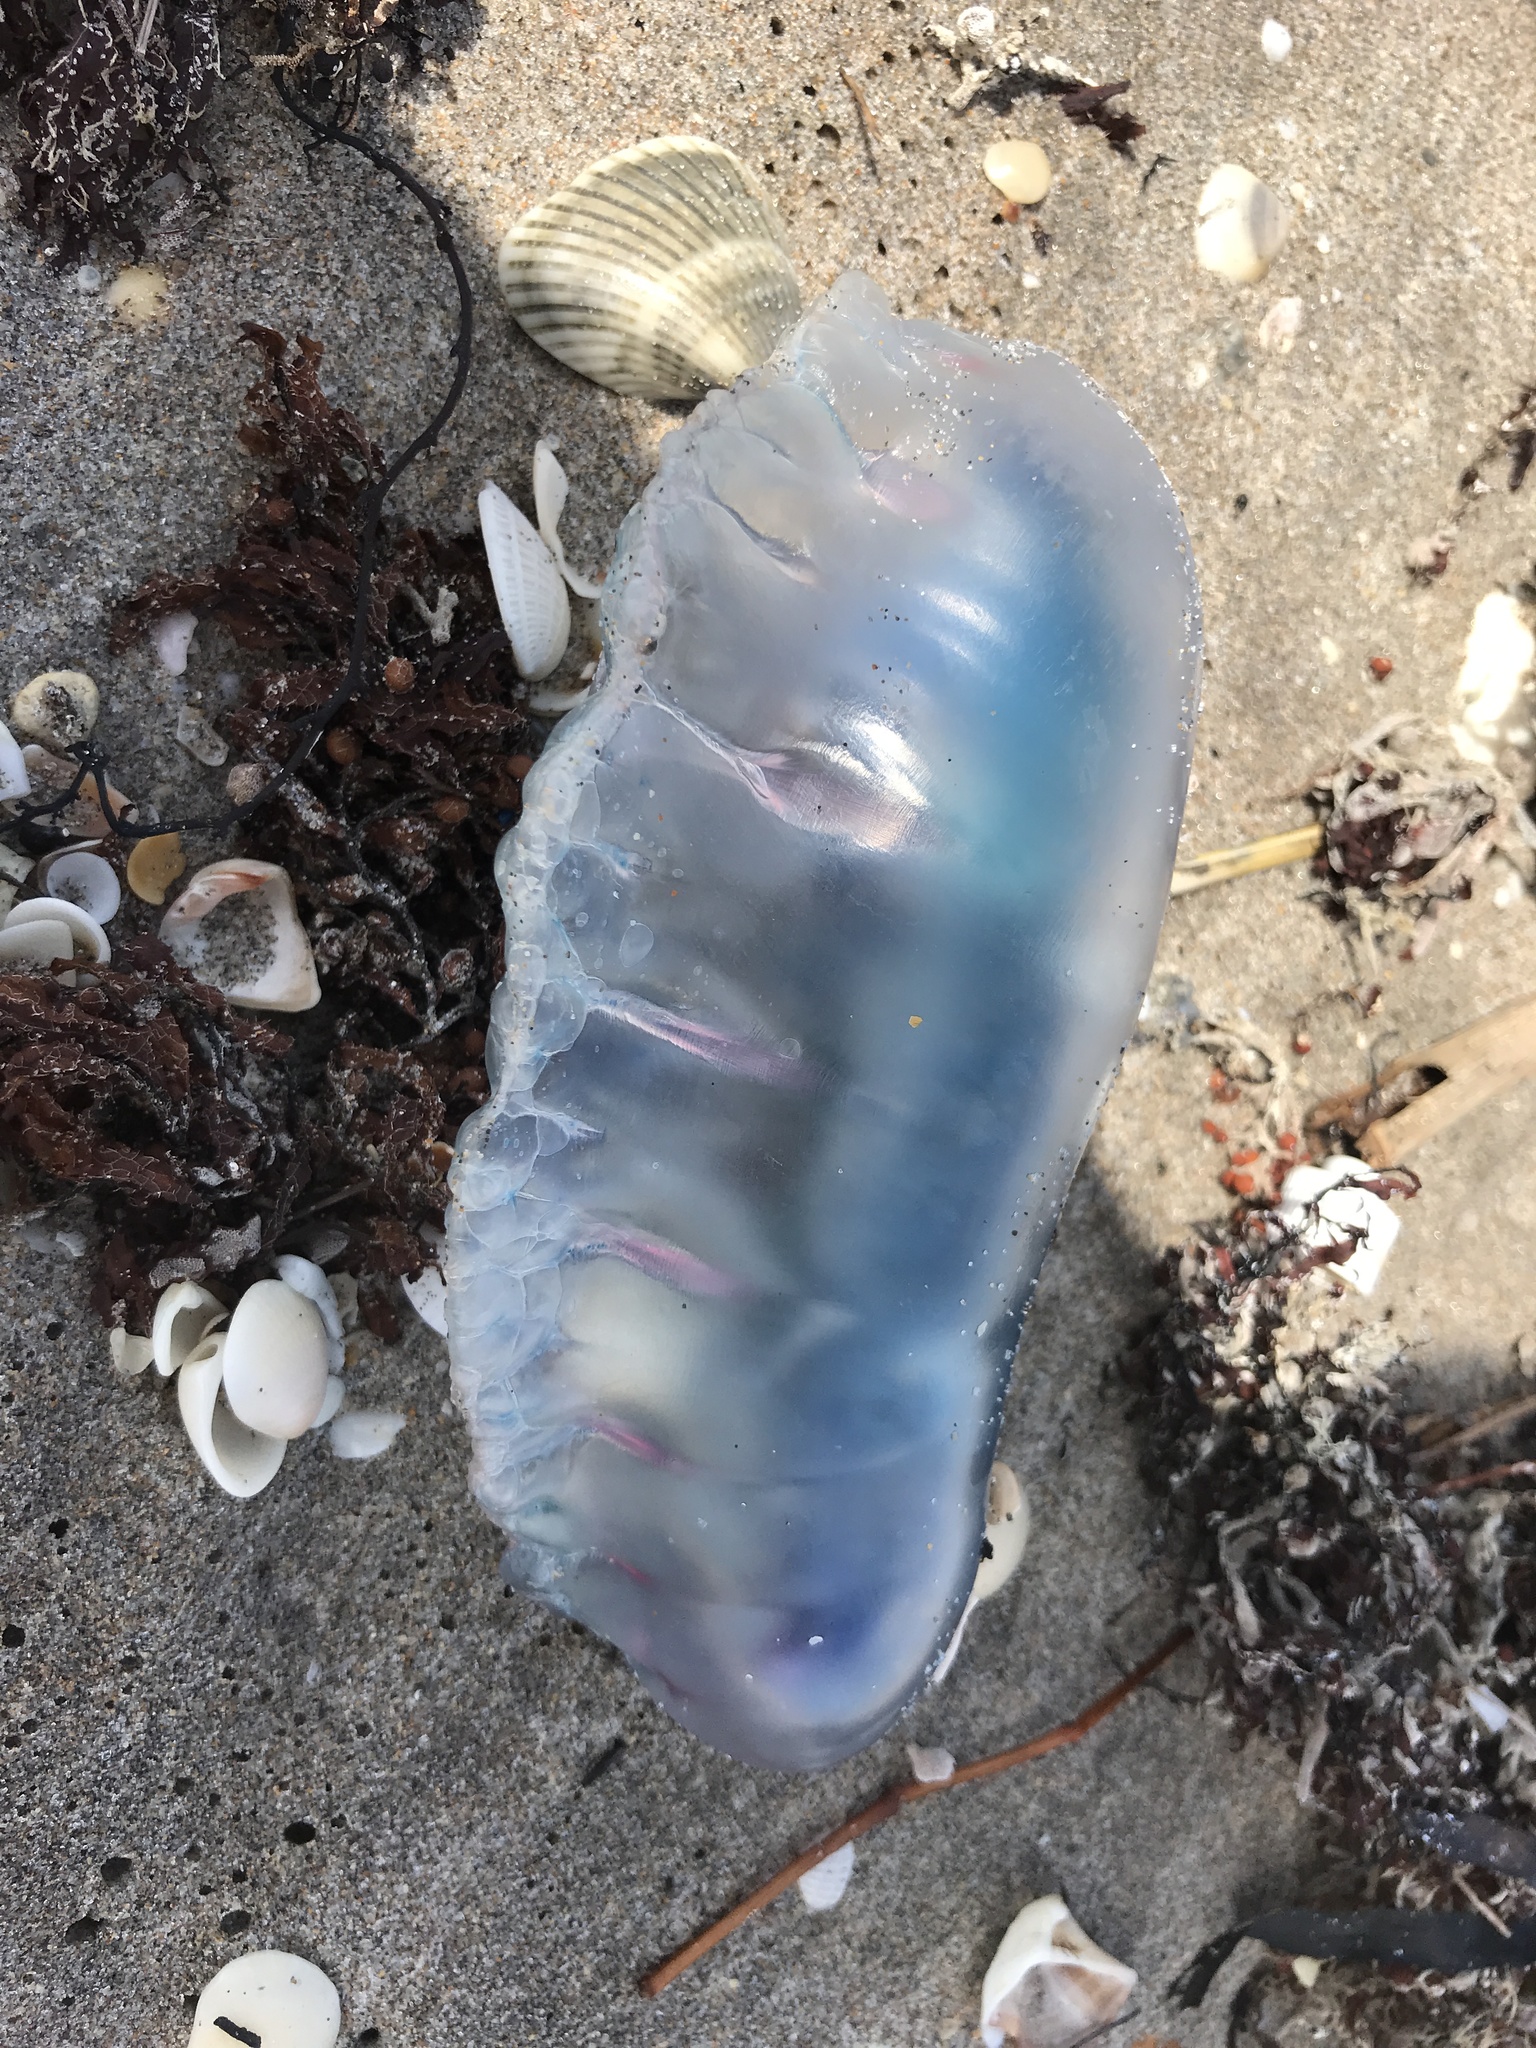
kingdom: Animalia
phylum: Cnidaria
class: Hydrozoa
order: Siphonophorae
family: Physaliidae
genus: Physalia
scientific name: Physalia physalis
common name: Portuguese man-of-war
